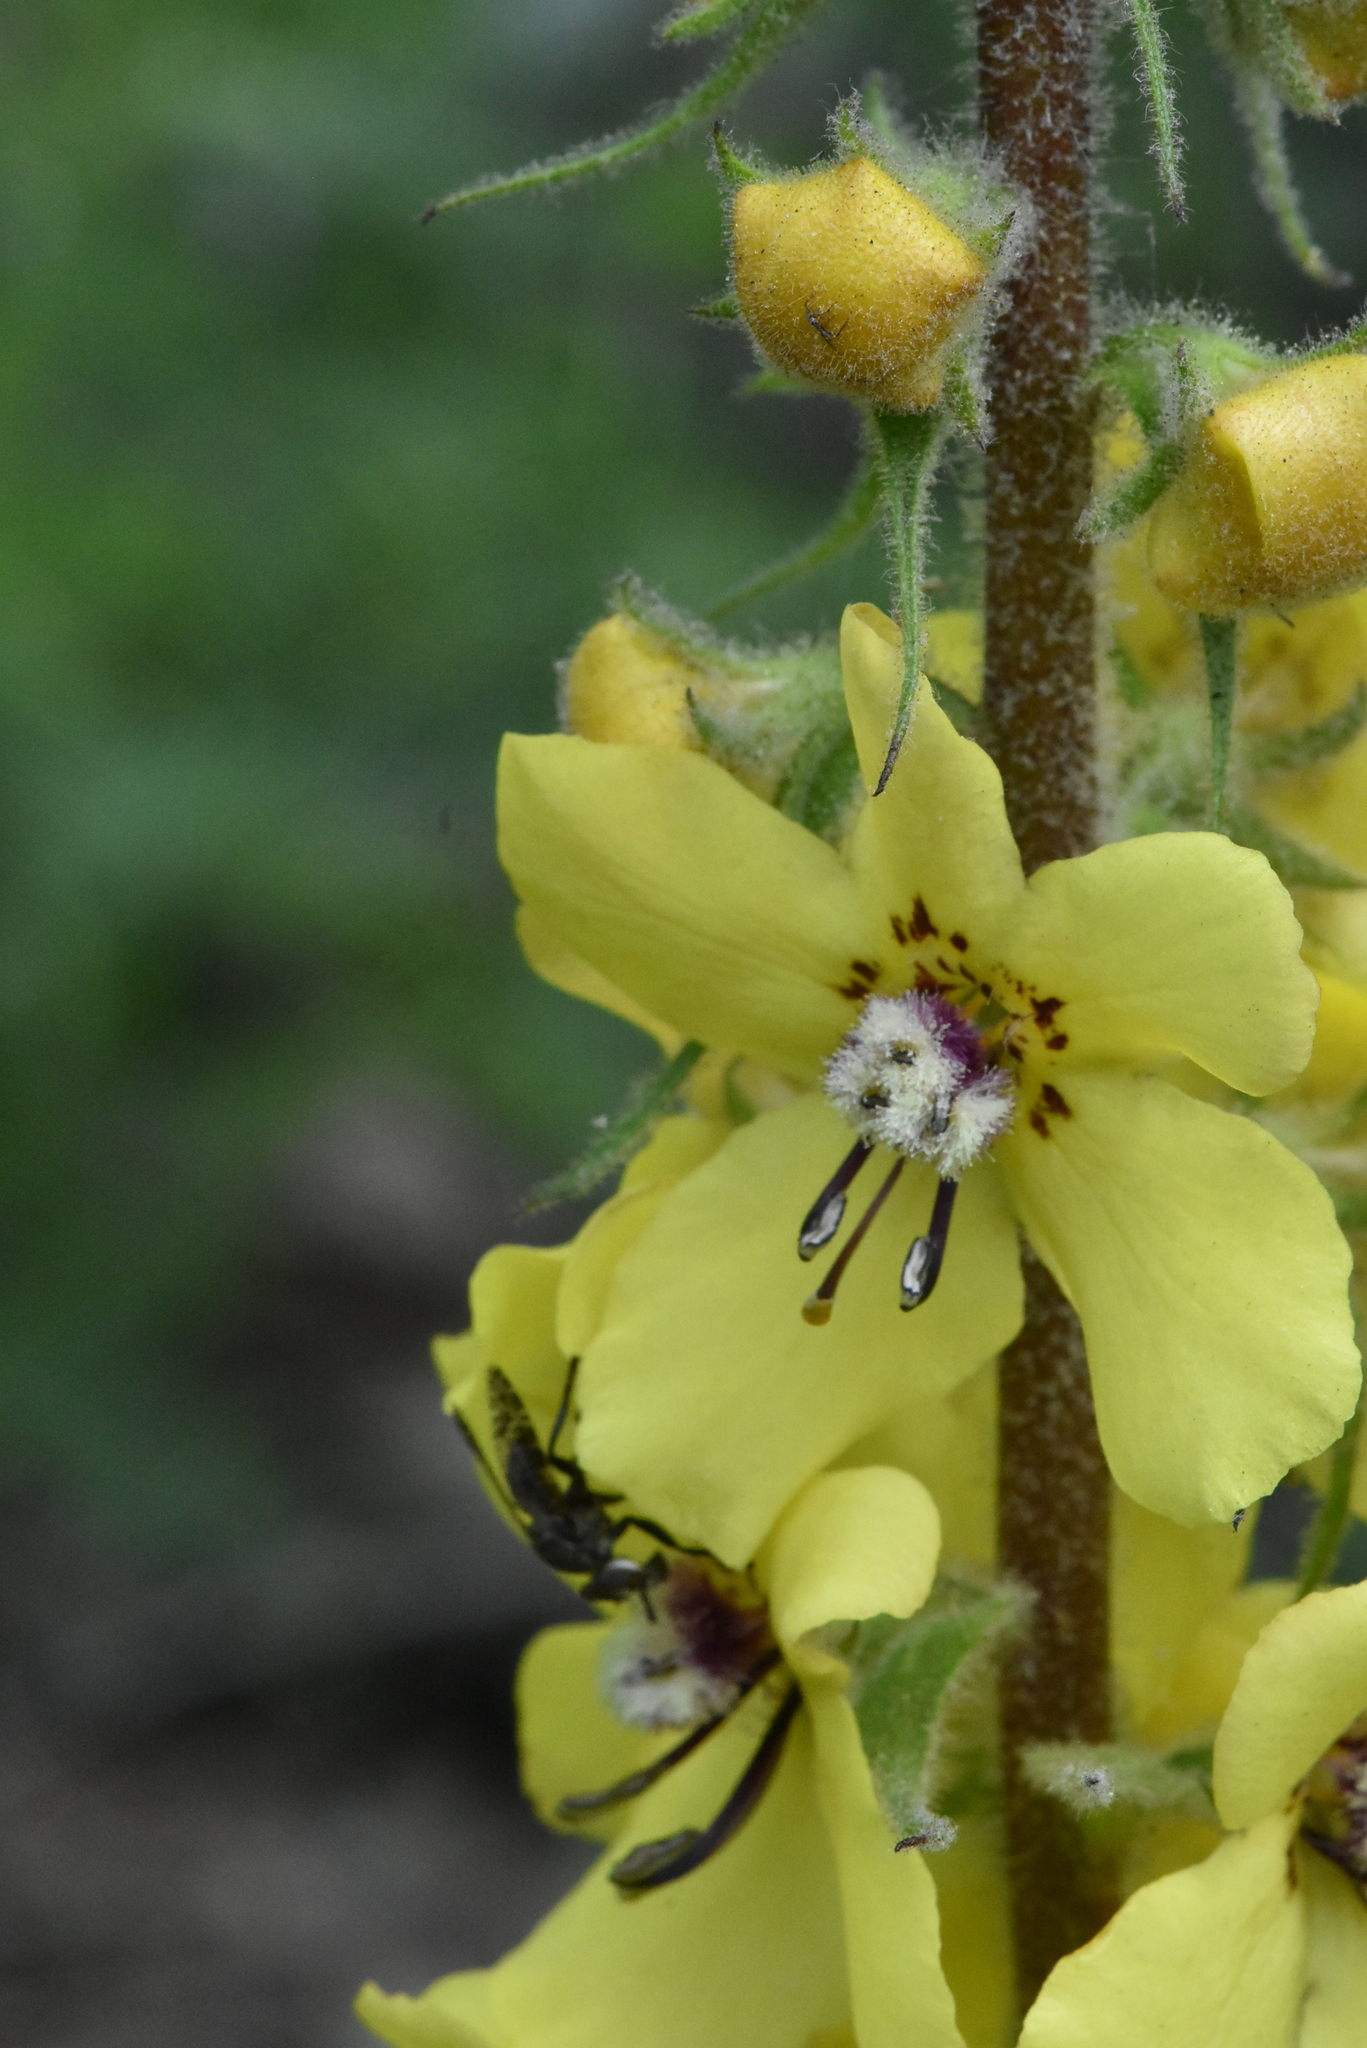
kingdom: Plantae
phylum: Tracheophyta
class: Magnoliopsida
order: Lamiales
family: Scrophulariaceae
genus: Verbascum
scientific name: Verbascum
